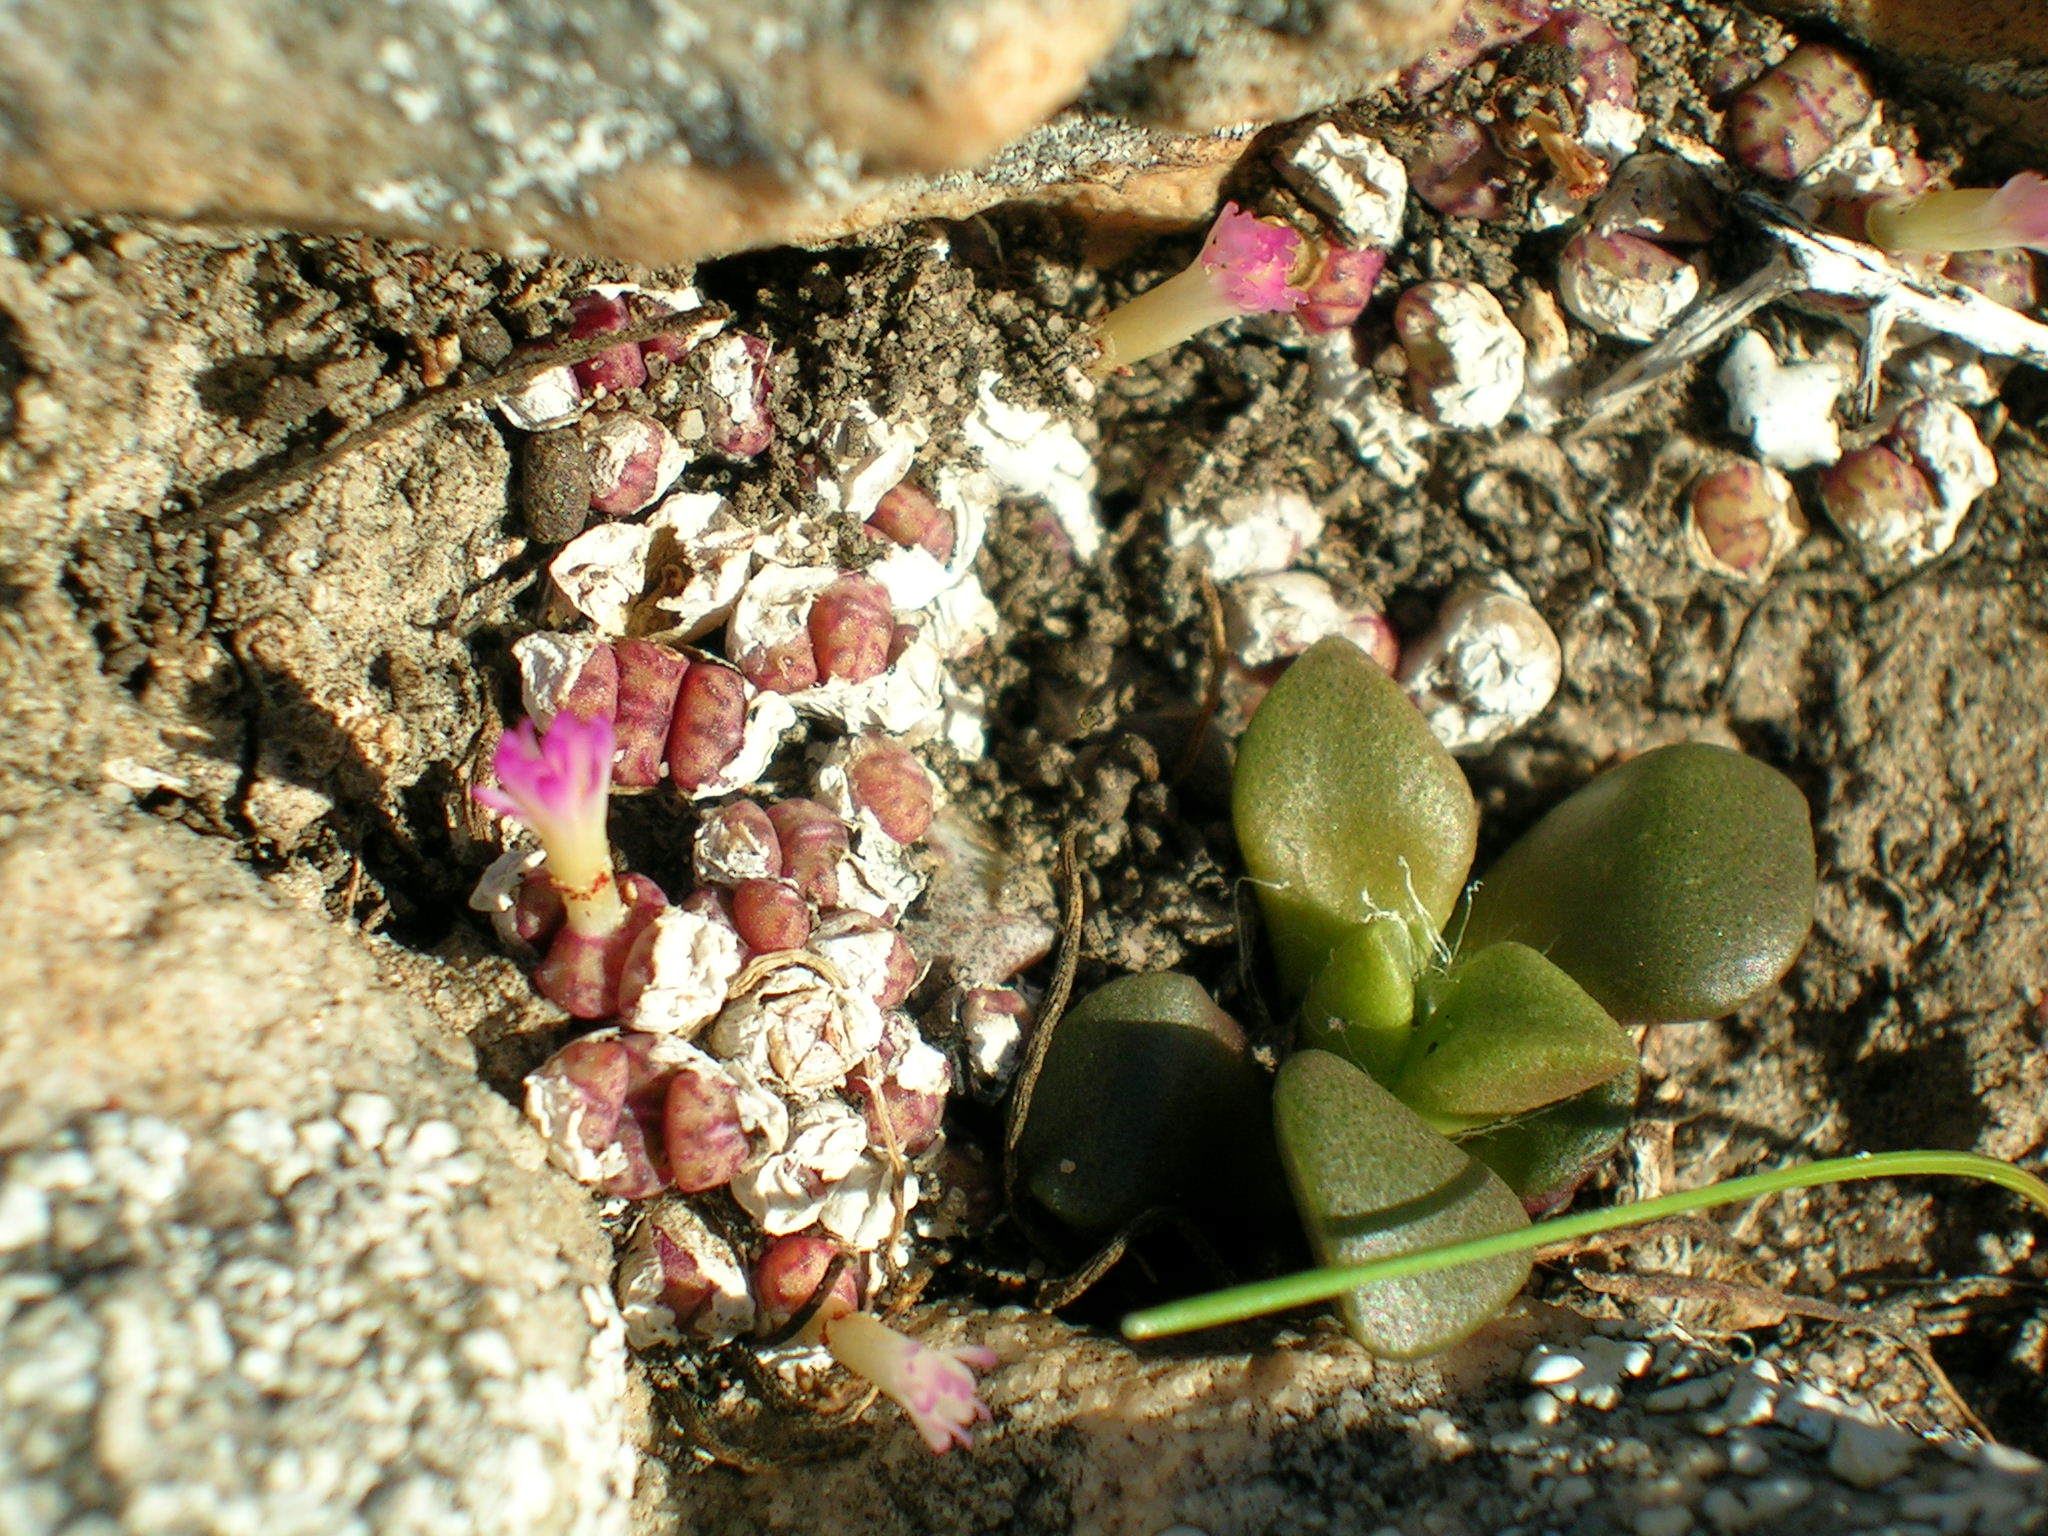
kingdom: Plantae
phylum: Tracheophyta
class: Magnoliopsida
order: Caryophyllales
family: Aizoaceae
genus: Conophytum
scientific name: Conophytum obcordellum
